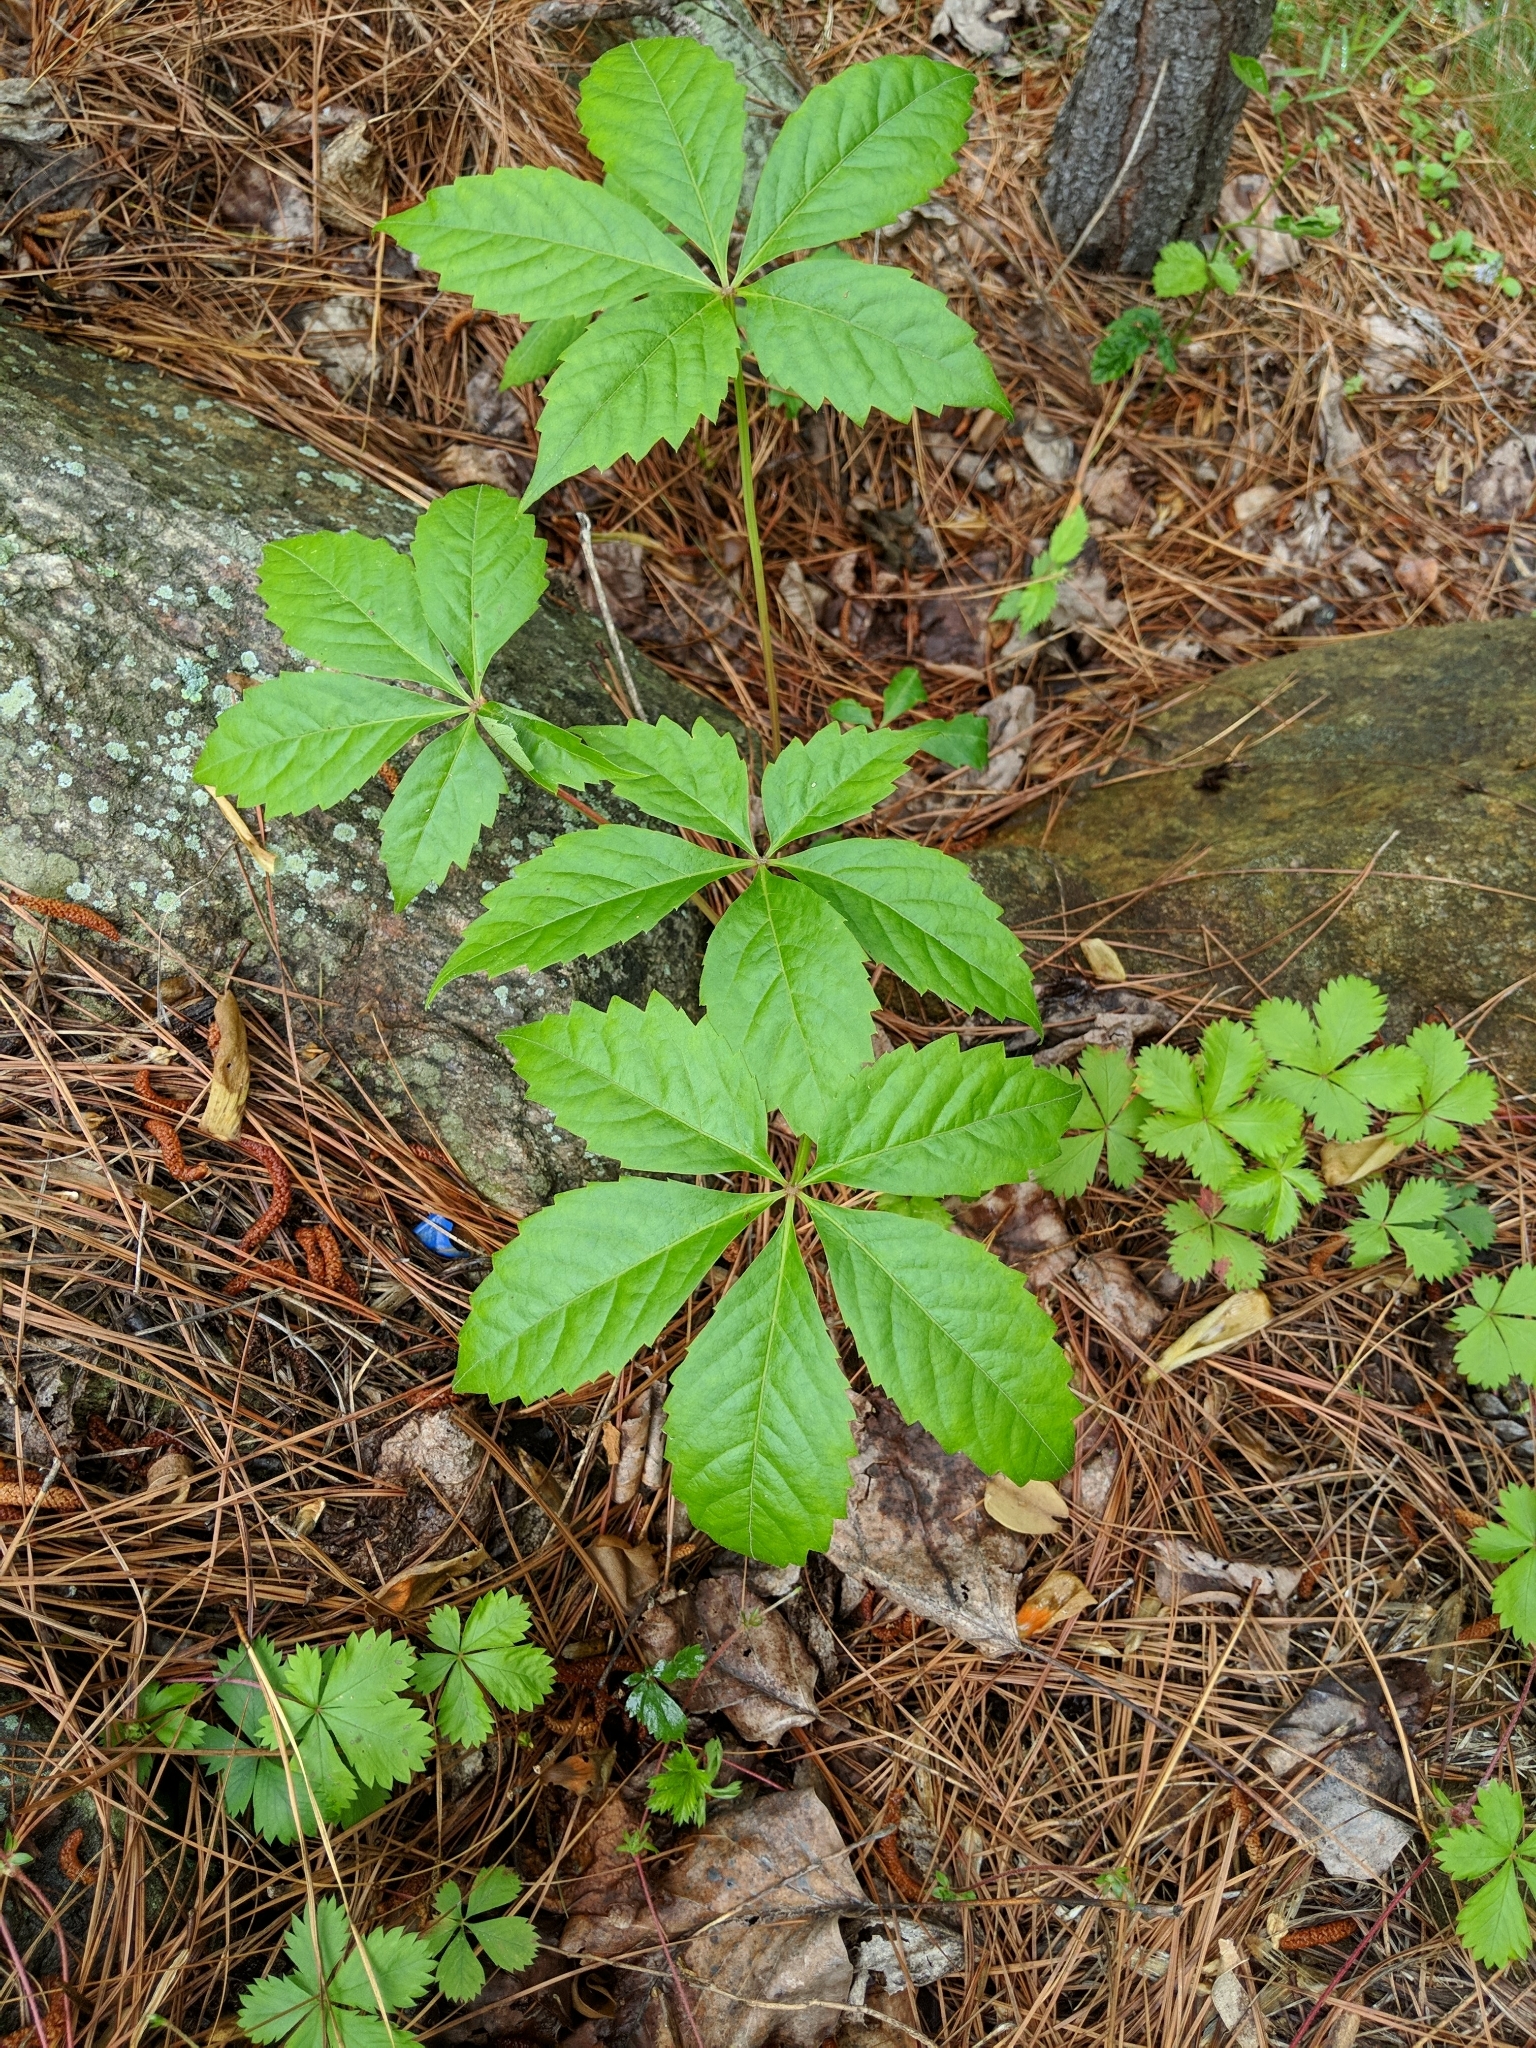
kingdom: Plantae
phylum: Tracheophyta
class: Magnoliopsida
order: Vitales
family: Vitaceae
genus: Parthenocissus
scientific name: Parthenocissus quinquefolia
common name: Virginia-creeper
